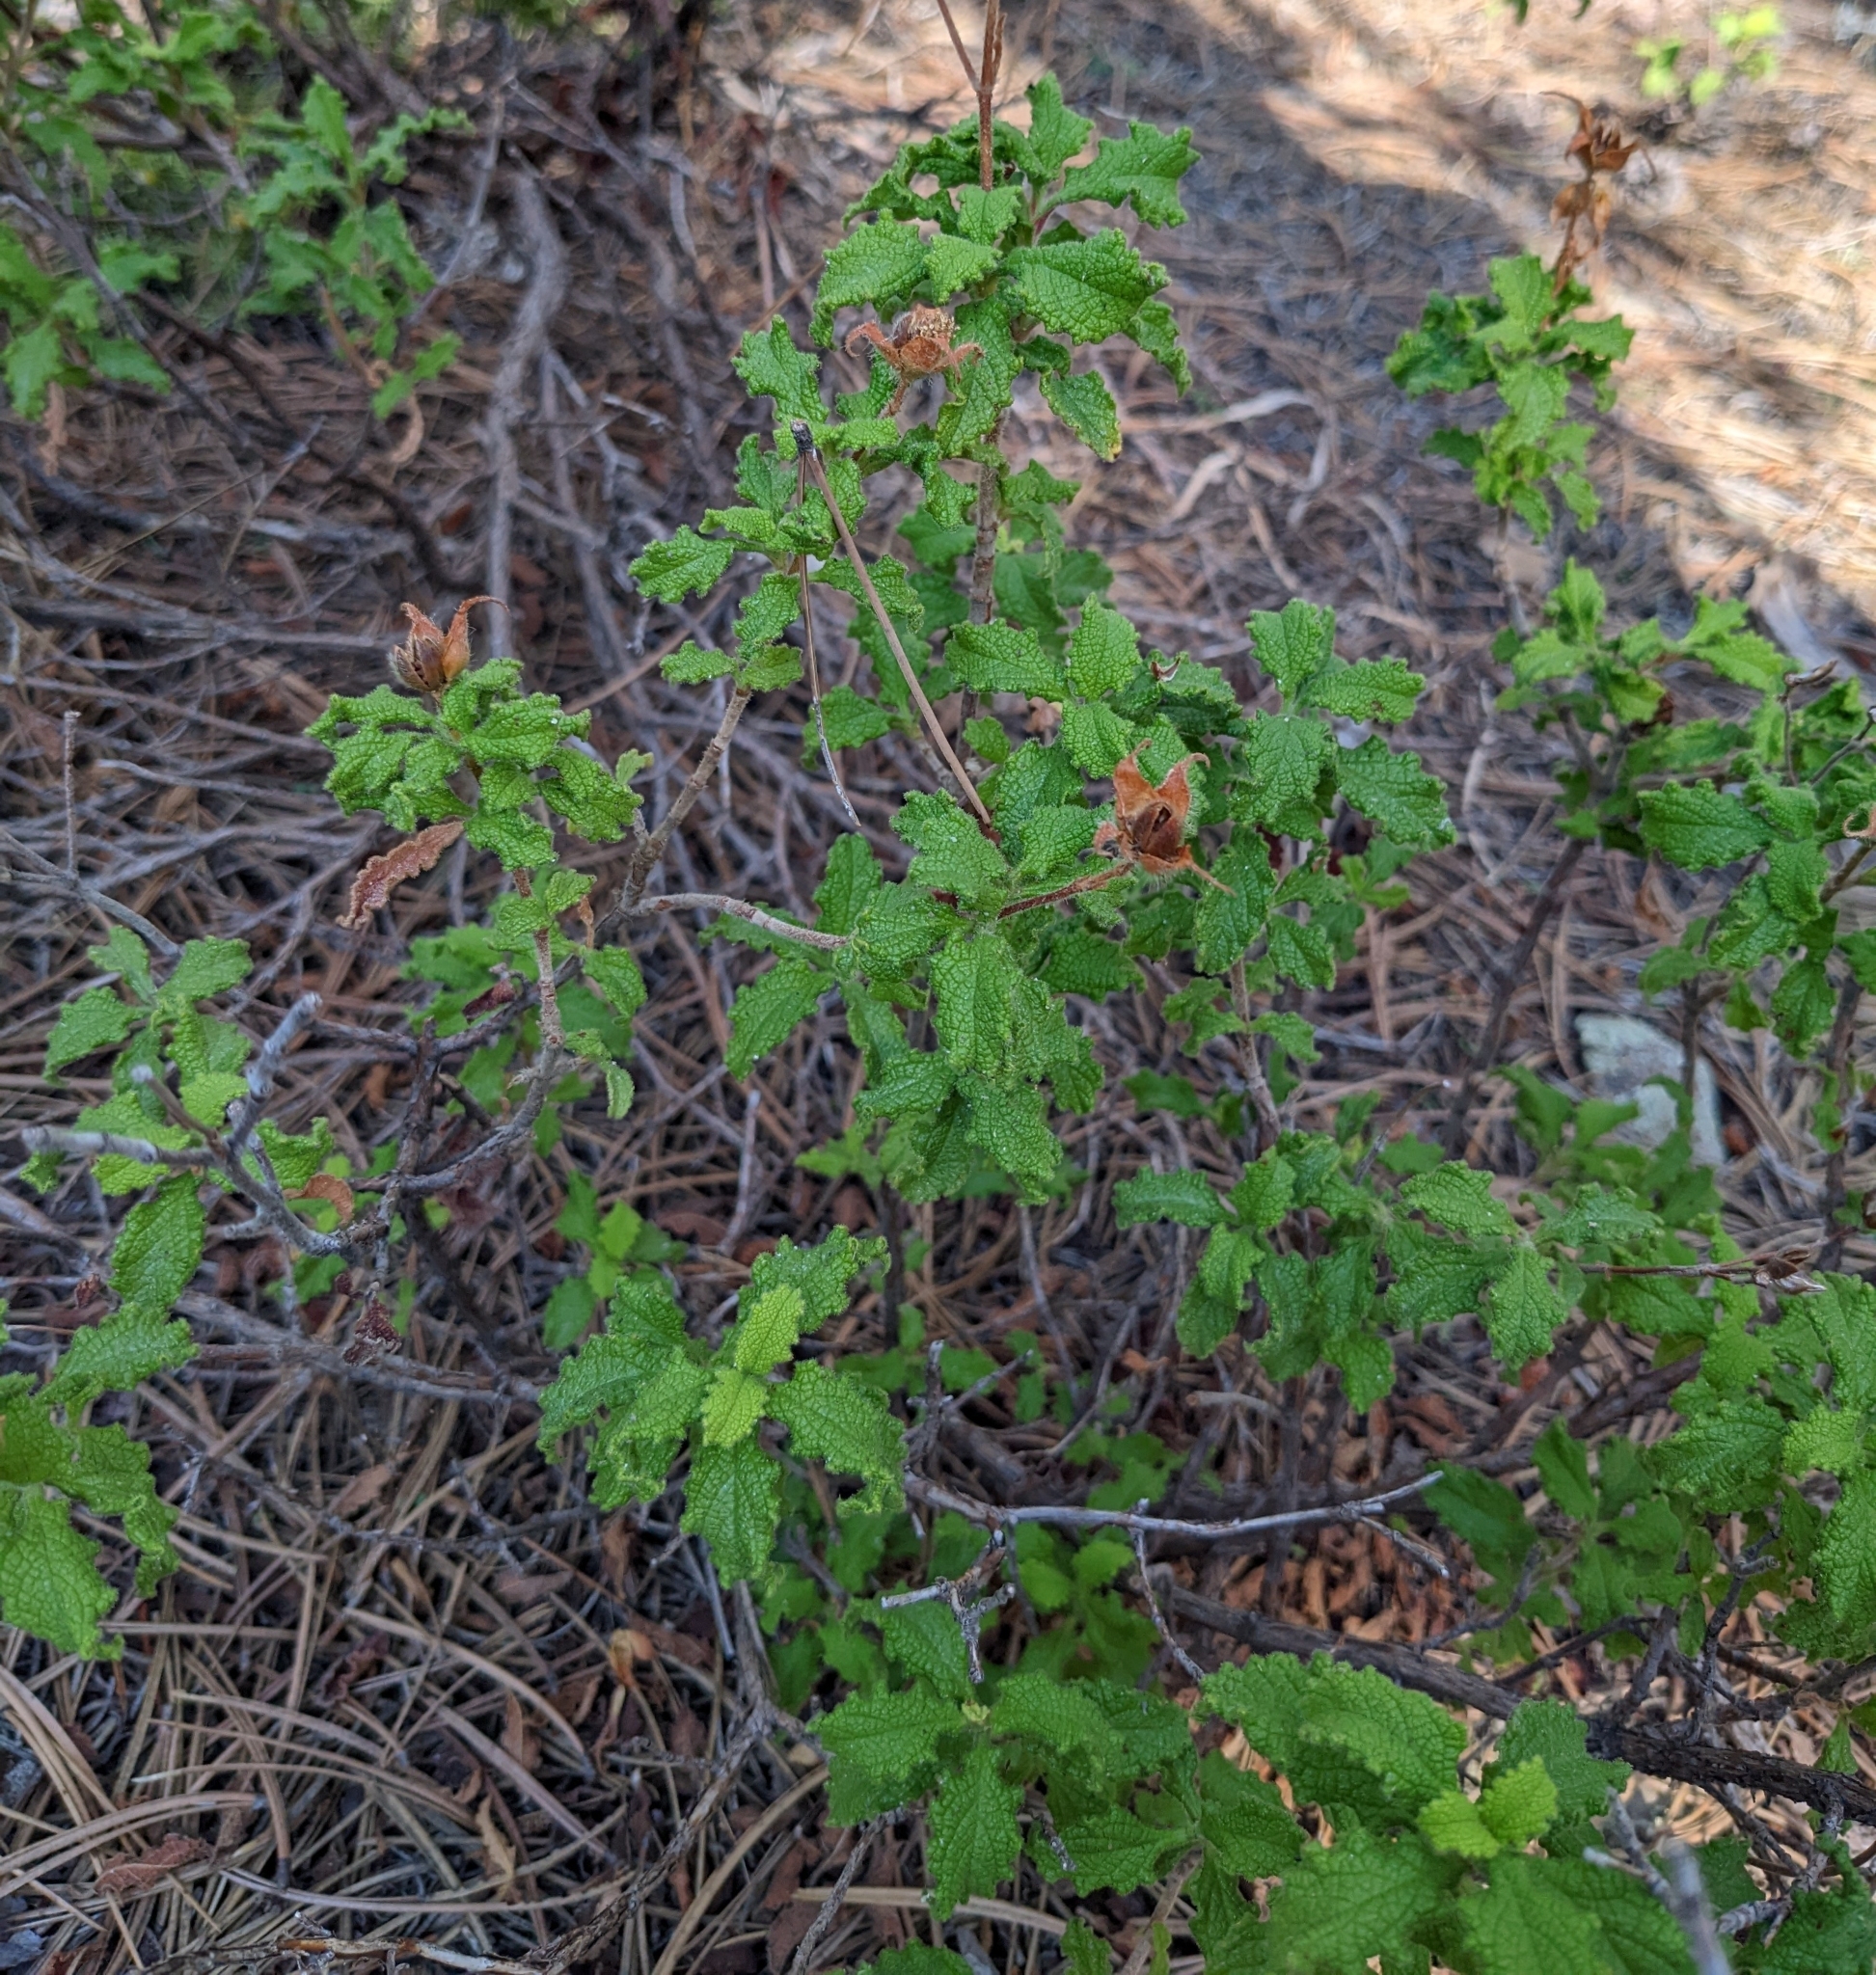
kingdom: Plantae
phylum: Tracheophyta
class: Magnoliopsida
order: Malvales
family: Cistaceae
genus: Cistus
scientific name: Cistus creticus
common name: Cretan rockrose
